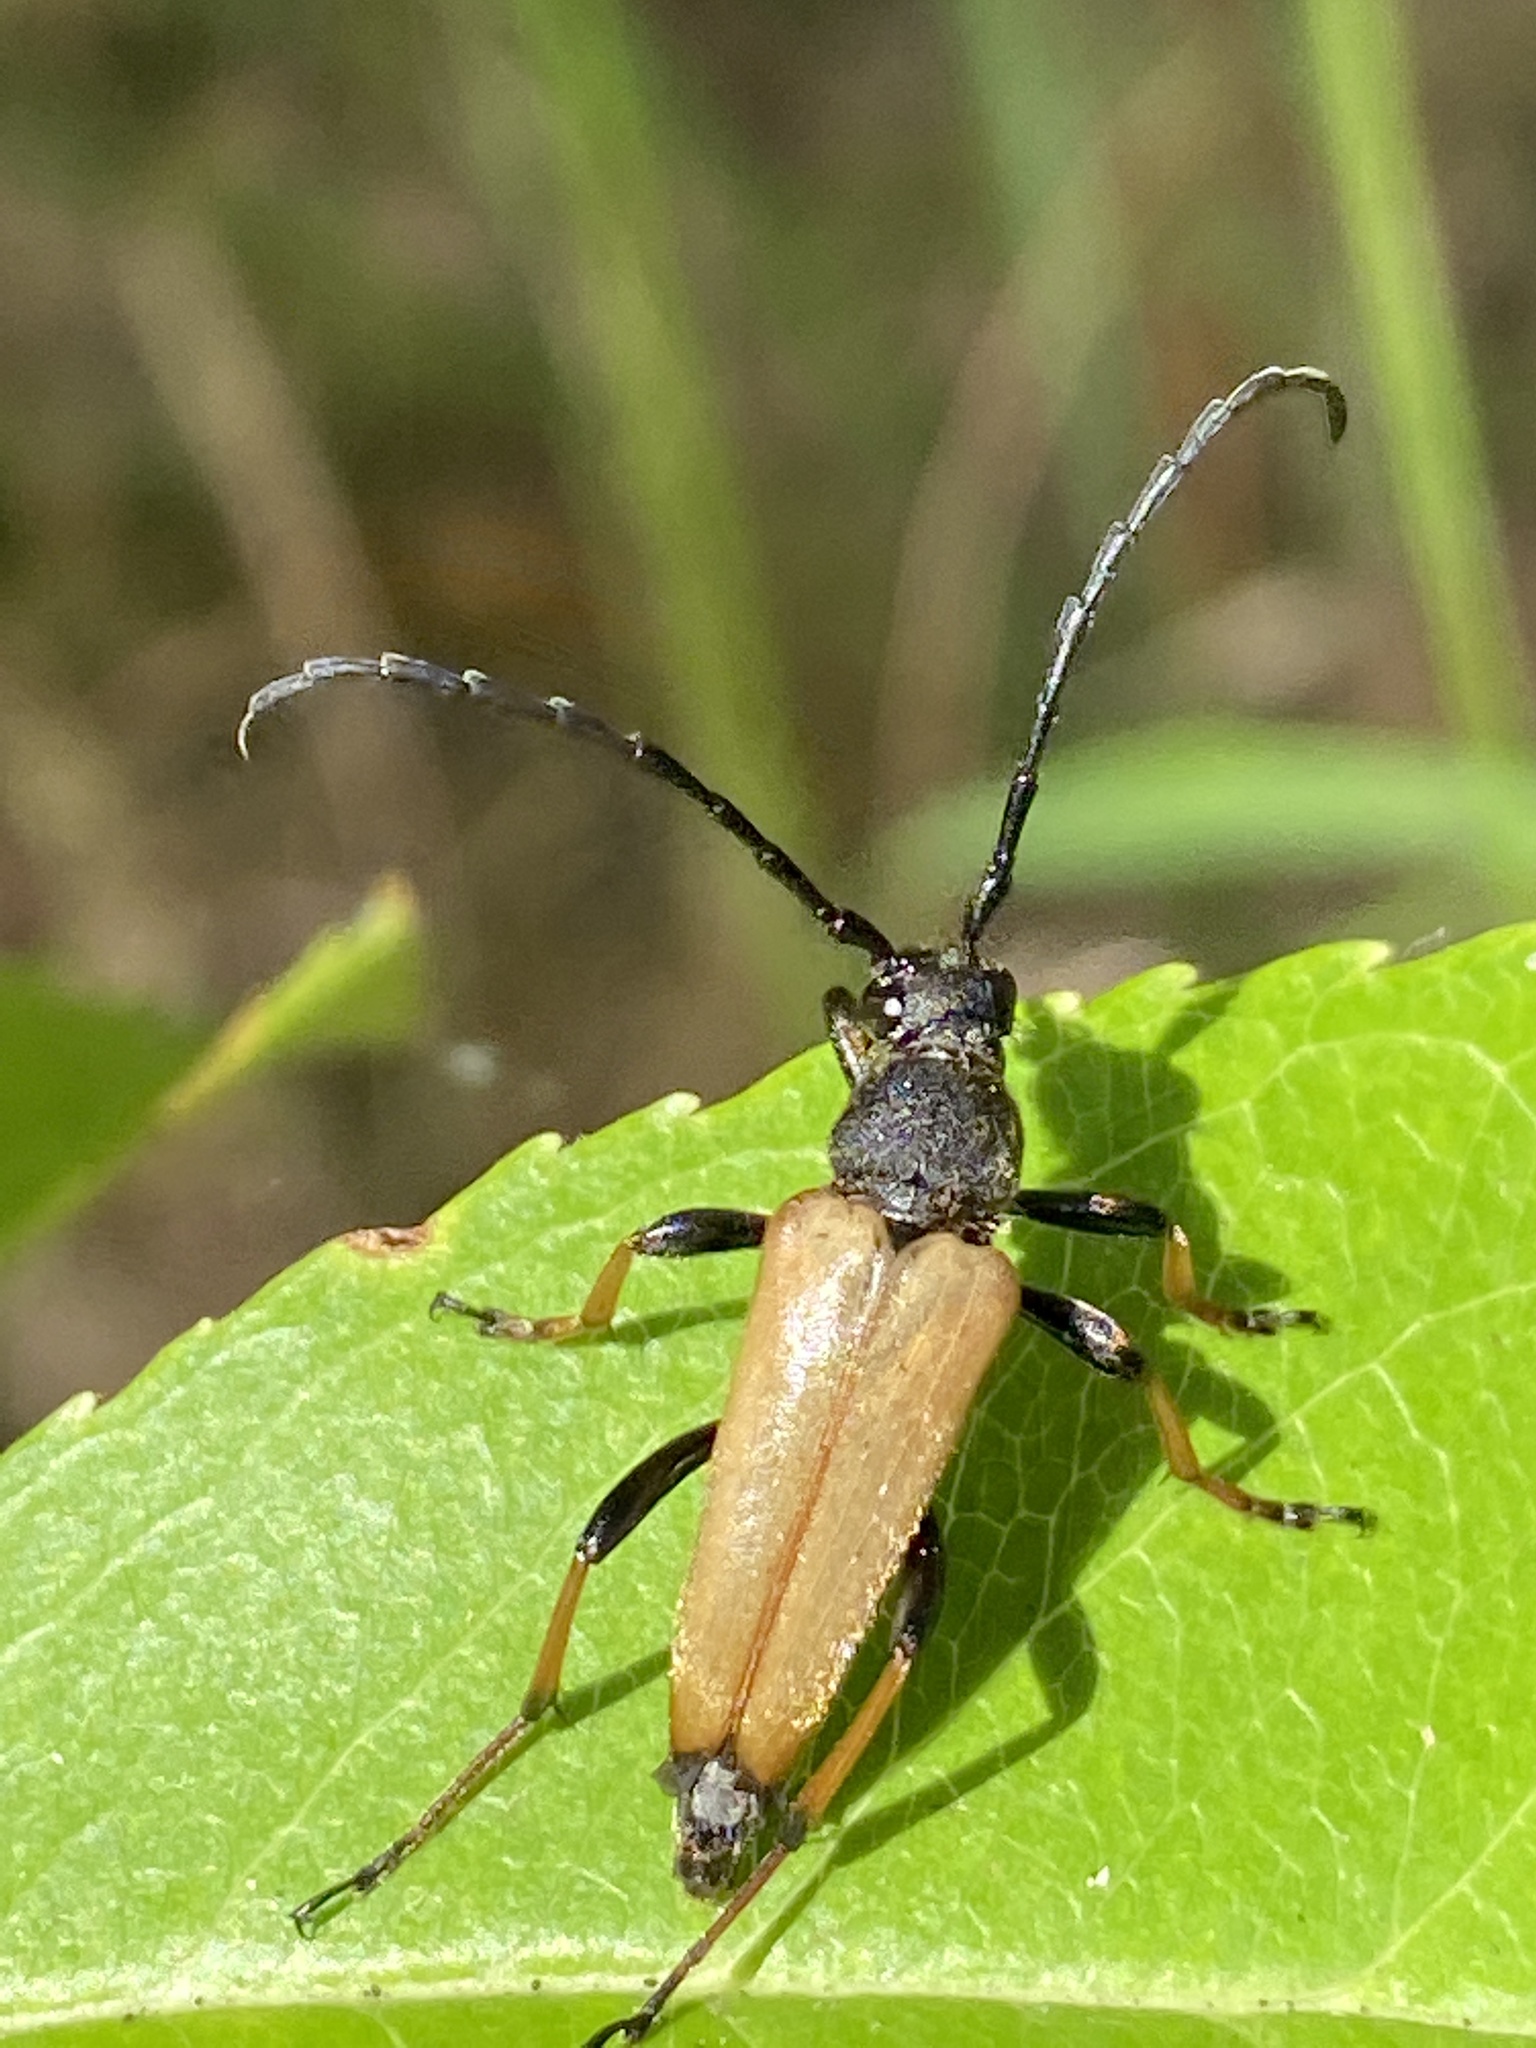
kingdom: Animalia
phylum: Arthropoda
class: Insecta
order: Coleoptera
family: Cerambycidae
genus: Stictoleptura
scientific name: Stictoleptura rubra
